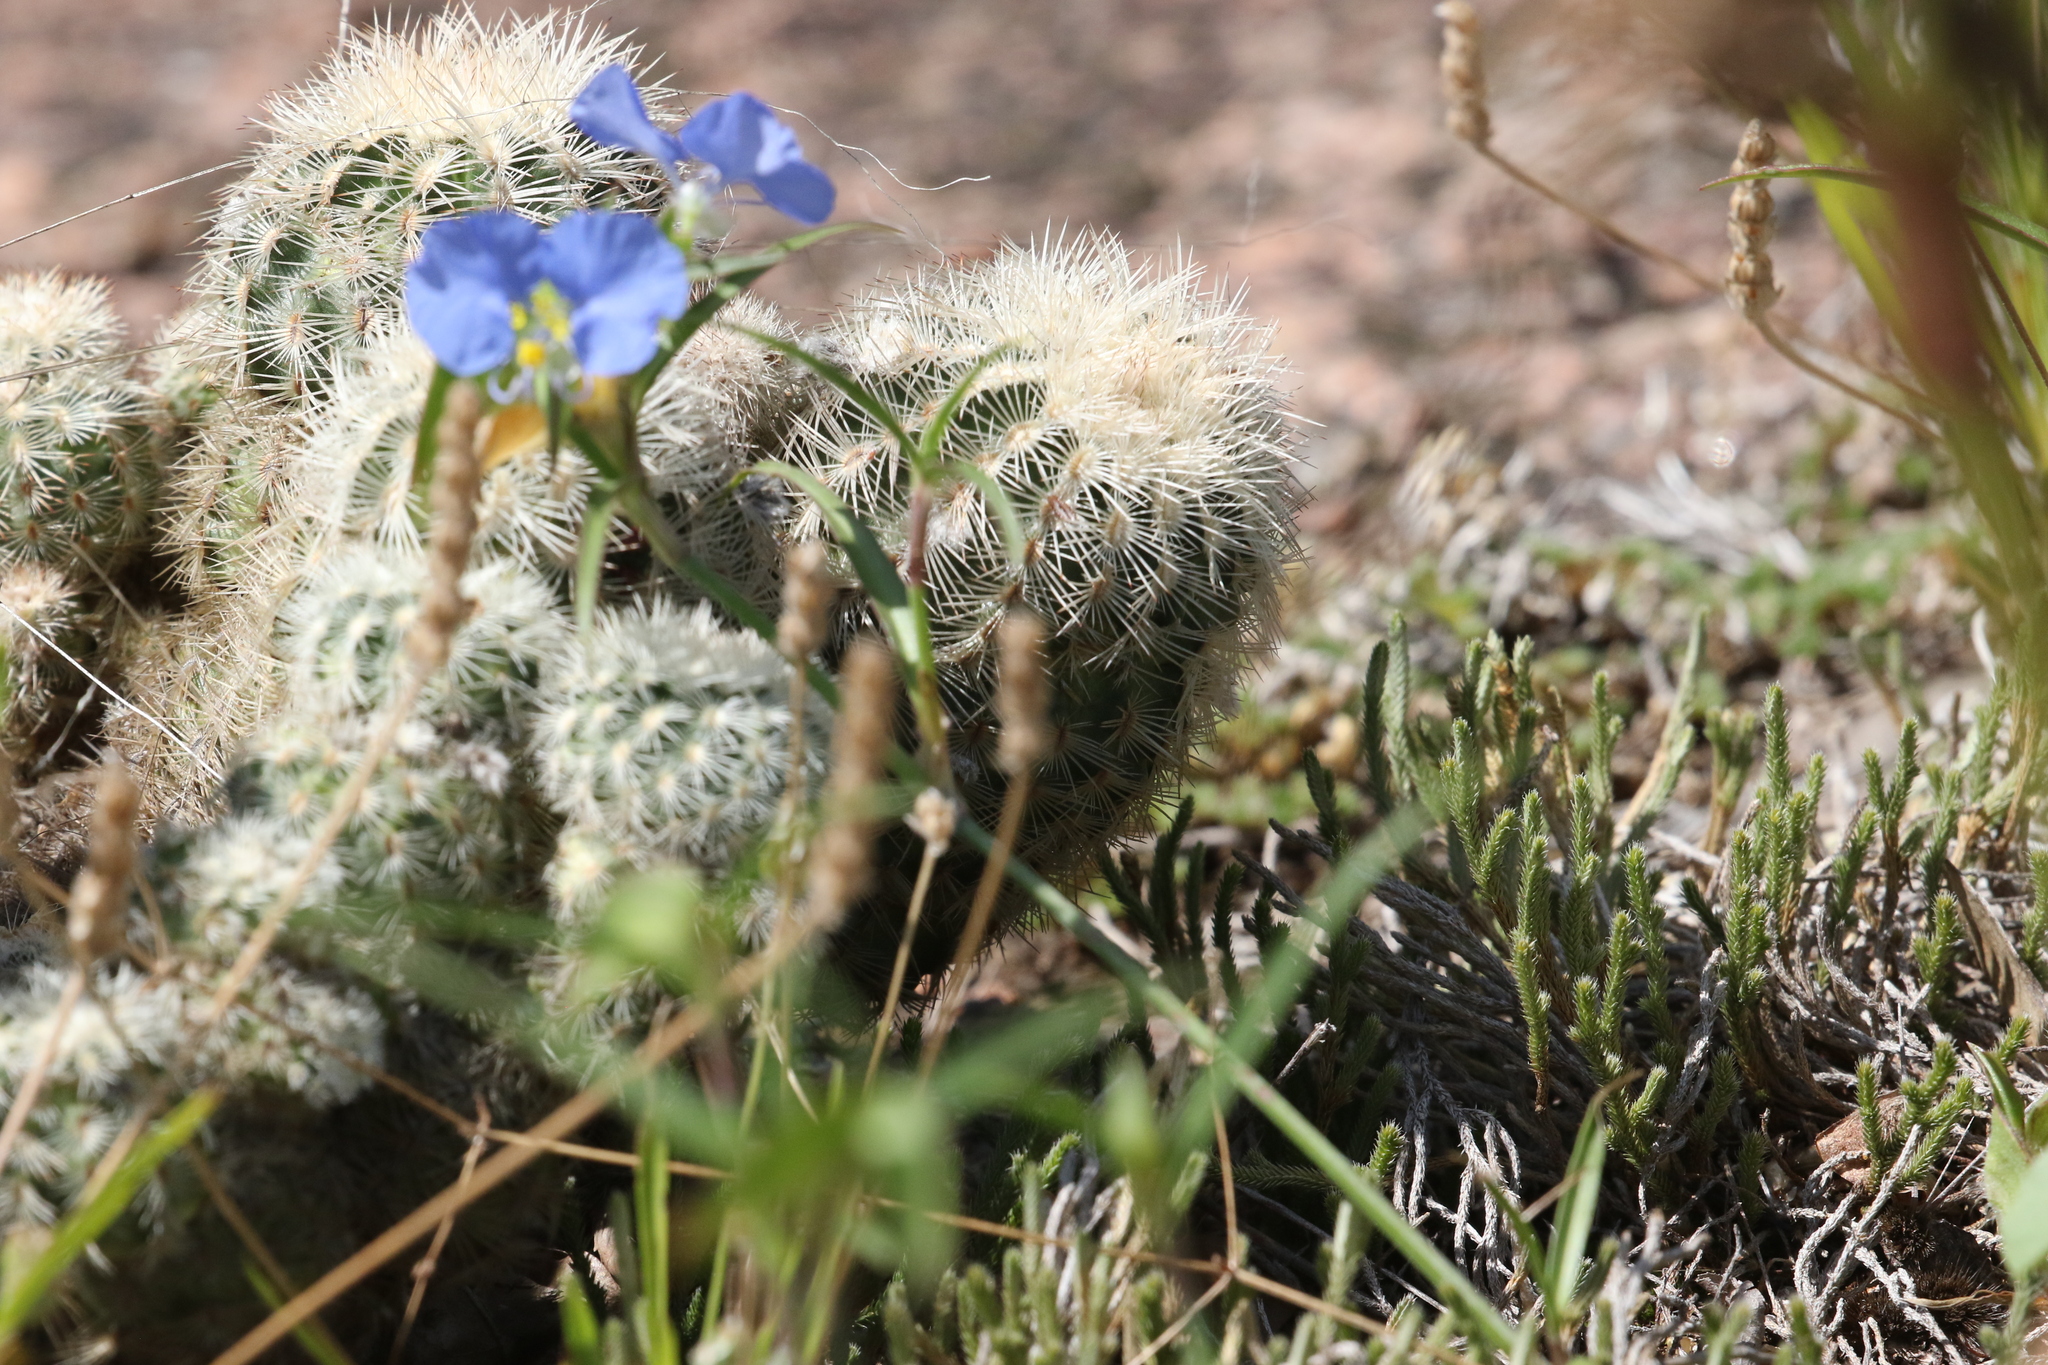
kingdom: Plantae
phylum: Tracheophyta
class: Magnoliopsida
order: Caryophyllales
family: Cactaceae
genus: Echinocereus
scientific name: Echinocereus reichenbachii
